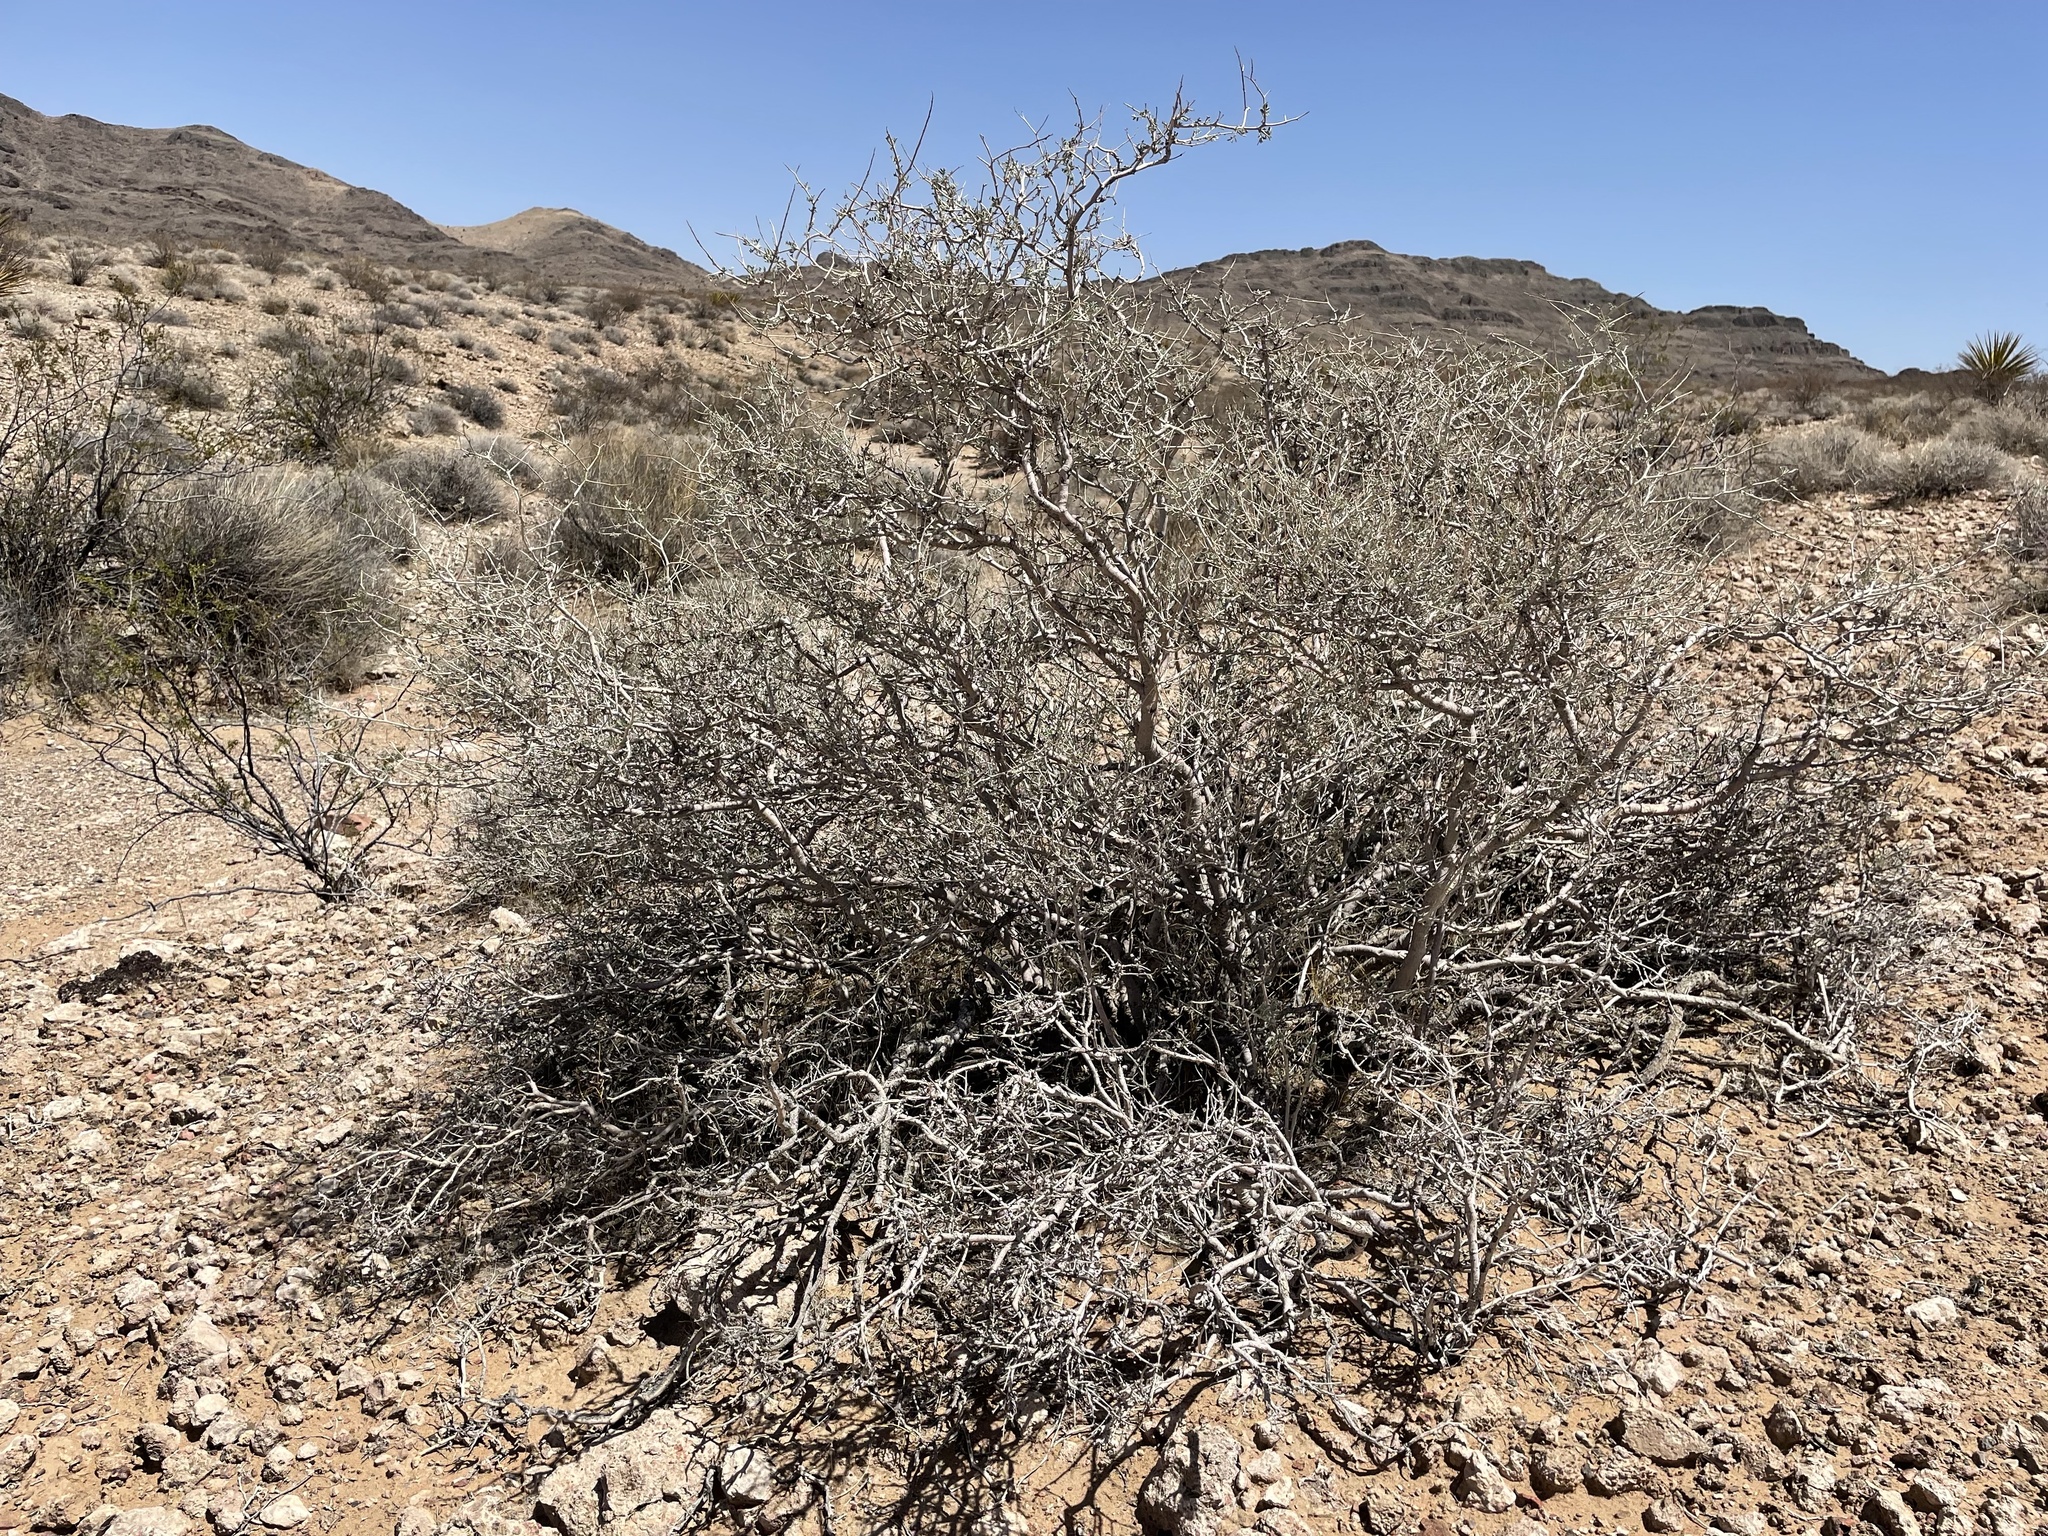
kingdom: Plantae
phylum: Tracheophyta
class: Magnoliopsida
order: Fabales
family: Fabaceae
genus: Psorothamnus
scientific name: Psorothamnus fremontii
